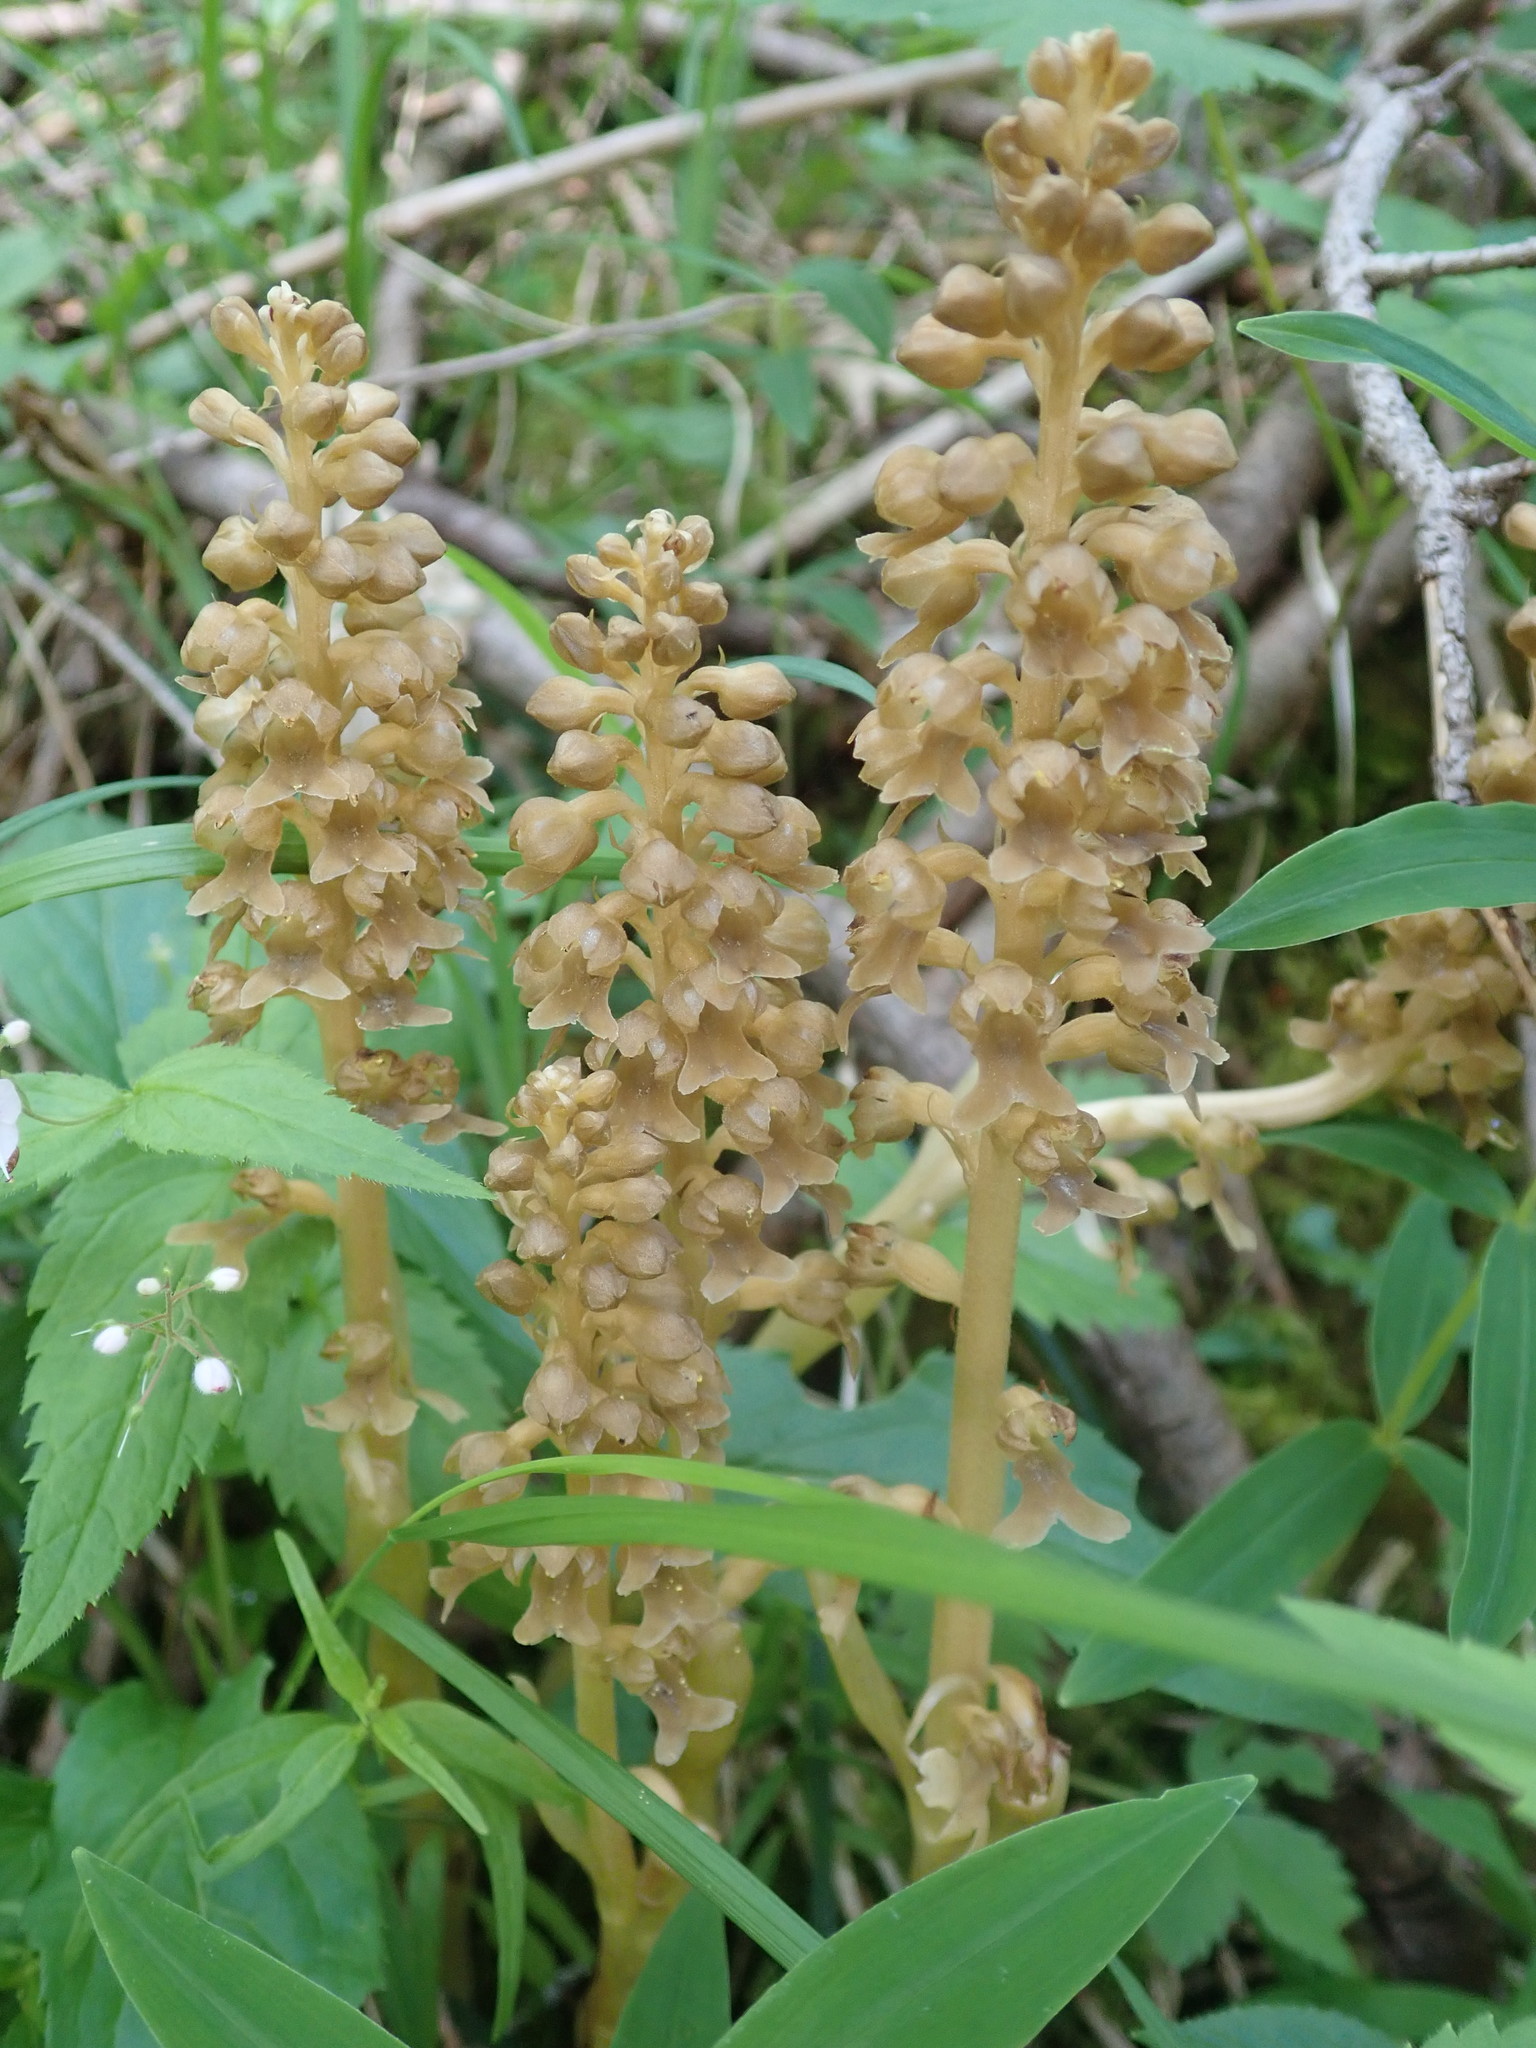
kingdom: Plantae
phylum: Tracheophyta
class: Liliopsida
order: Asparagales
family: Orchidaceae
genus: Neottia
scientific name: Neottia nidus-avis
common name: Bird's-nest orchid
